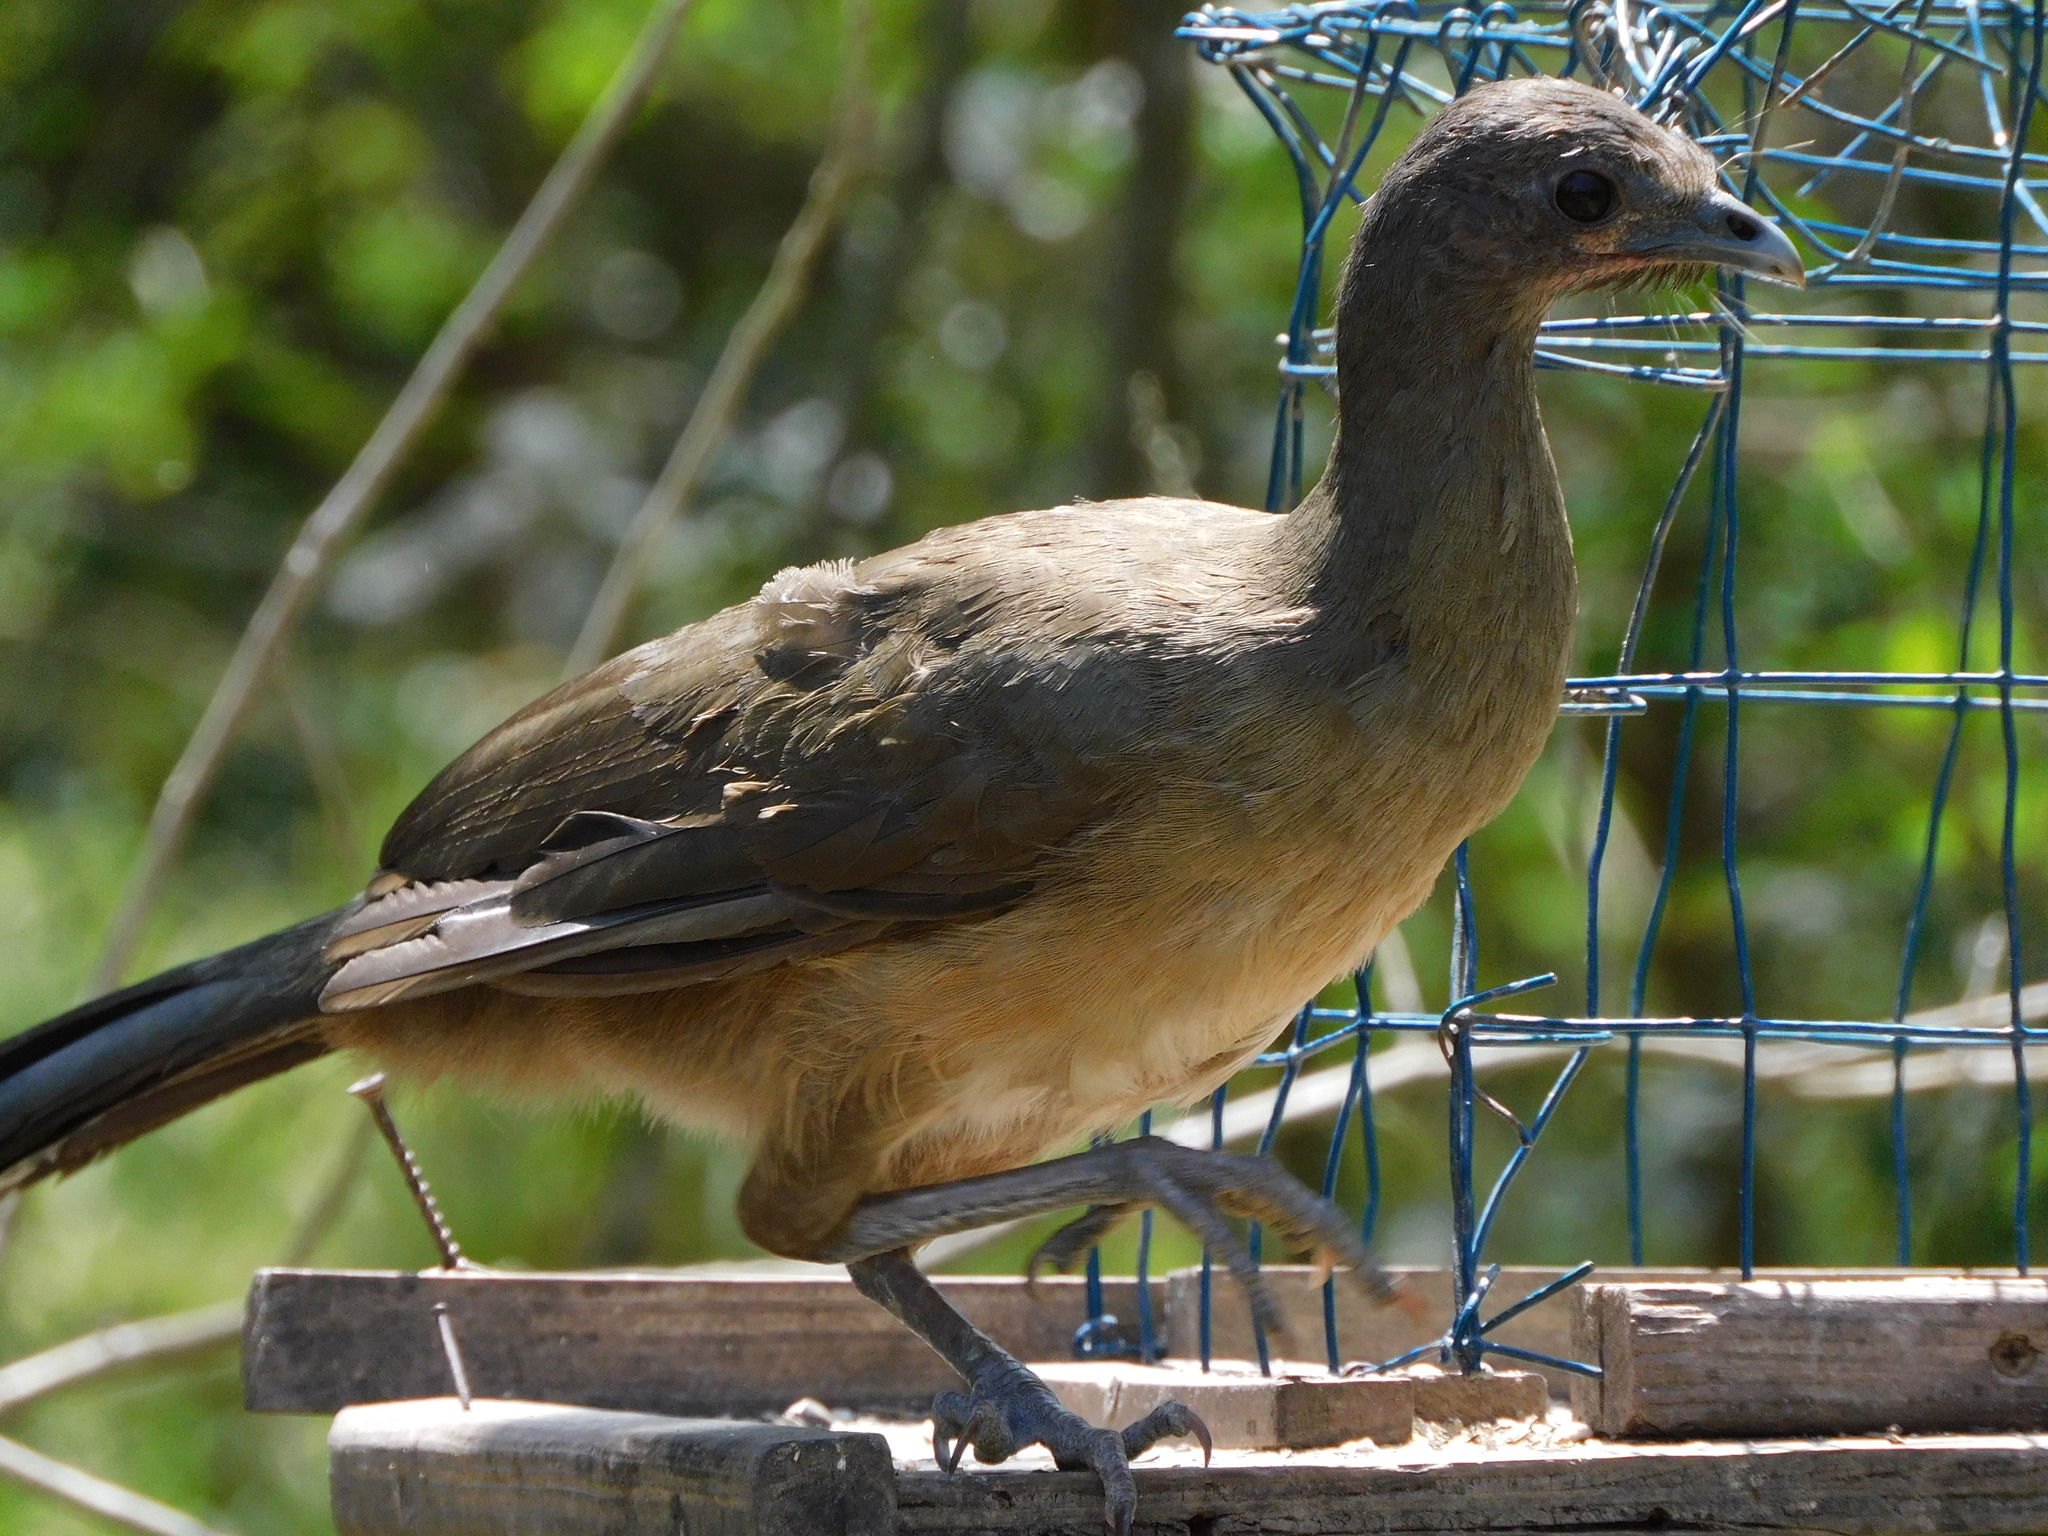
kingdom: Animalia
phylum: Chordata
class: Aves
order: Galliformes
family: Cracidae
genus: Ortalis
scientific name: Ortalis vetula
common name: Plain chachalaca
